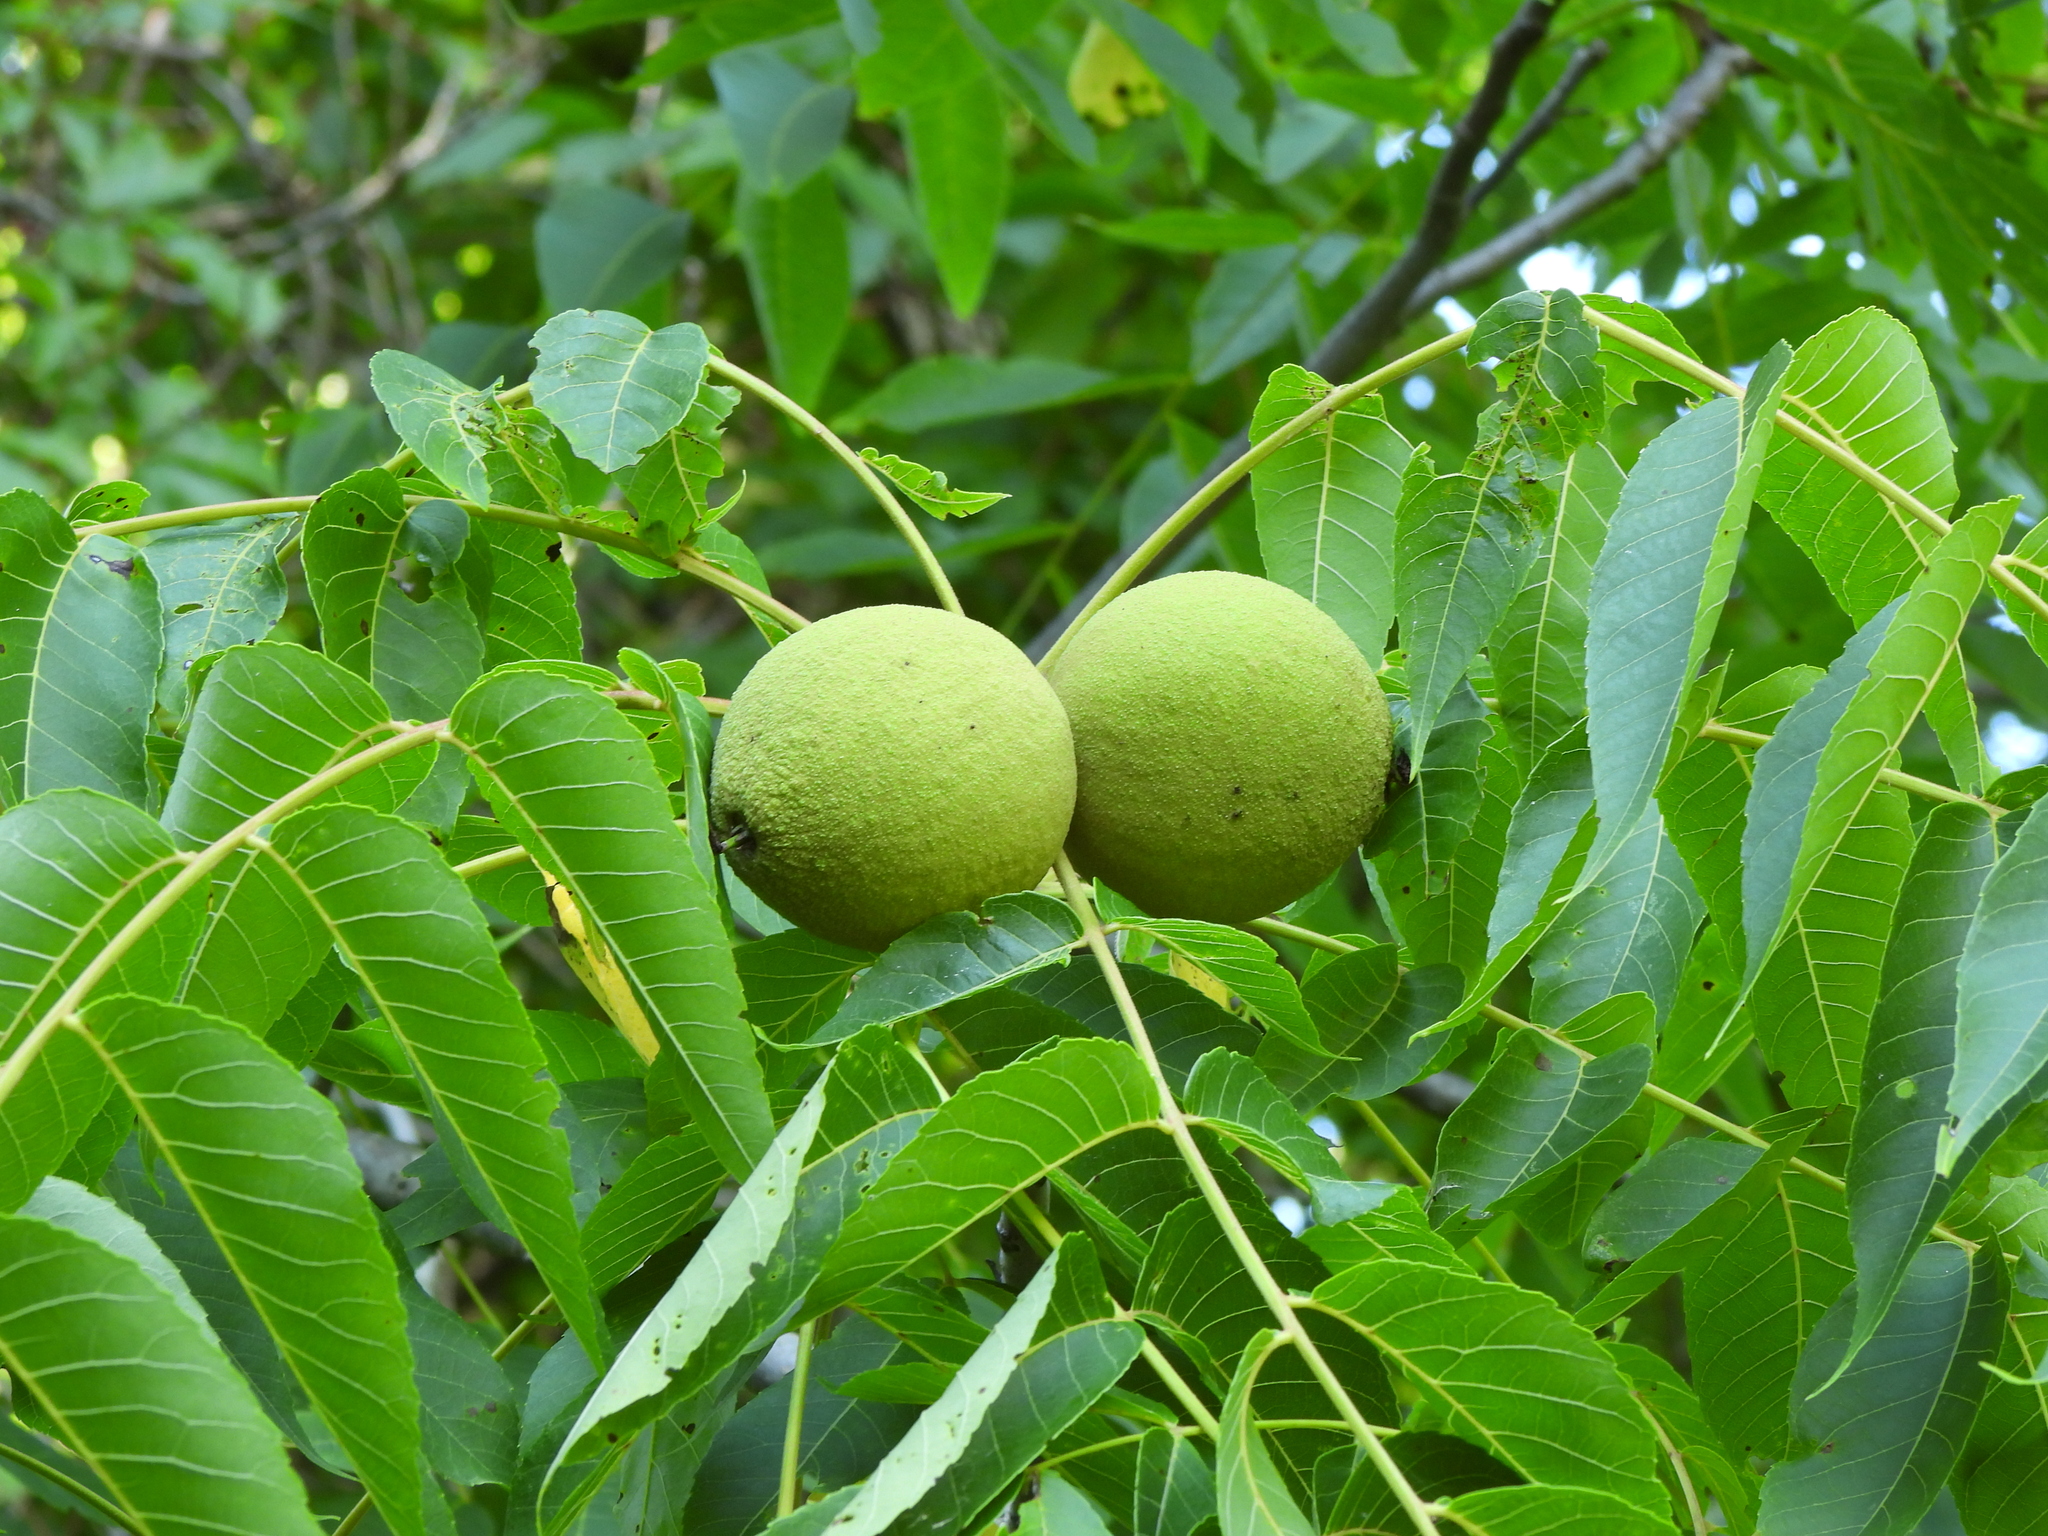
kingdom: Plantae
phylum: Tracheophyta
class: Magnoliopsida
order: Fagales
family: Juglandaceae
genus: Juglans
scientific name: Juglans nigra
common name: Black walnut
